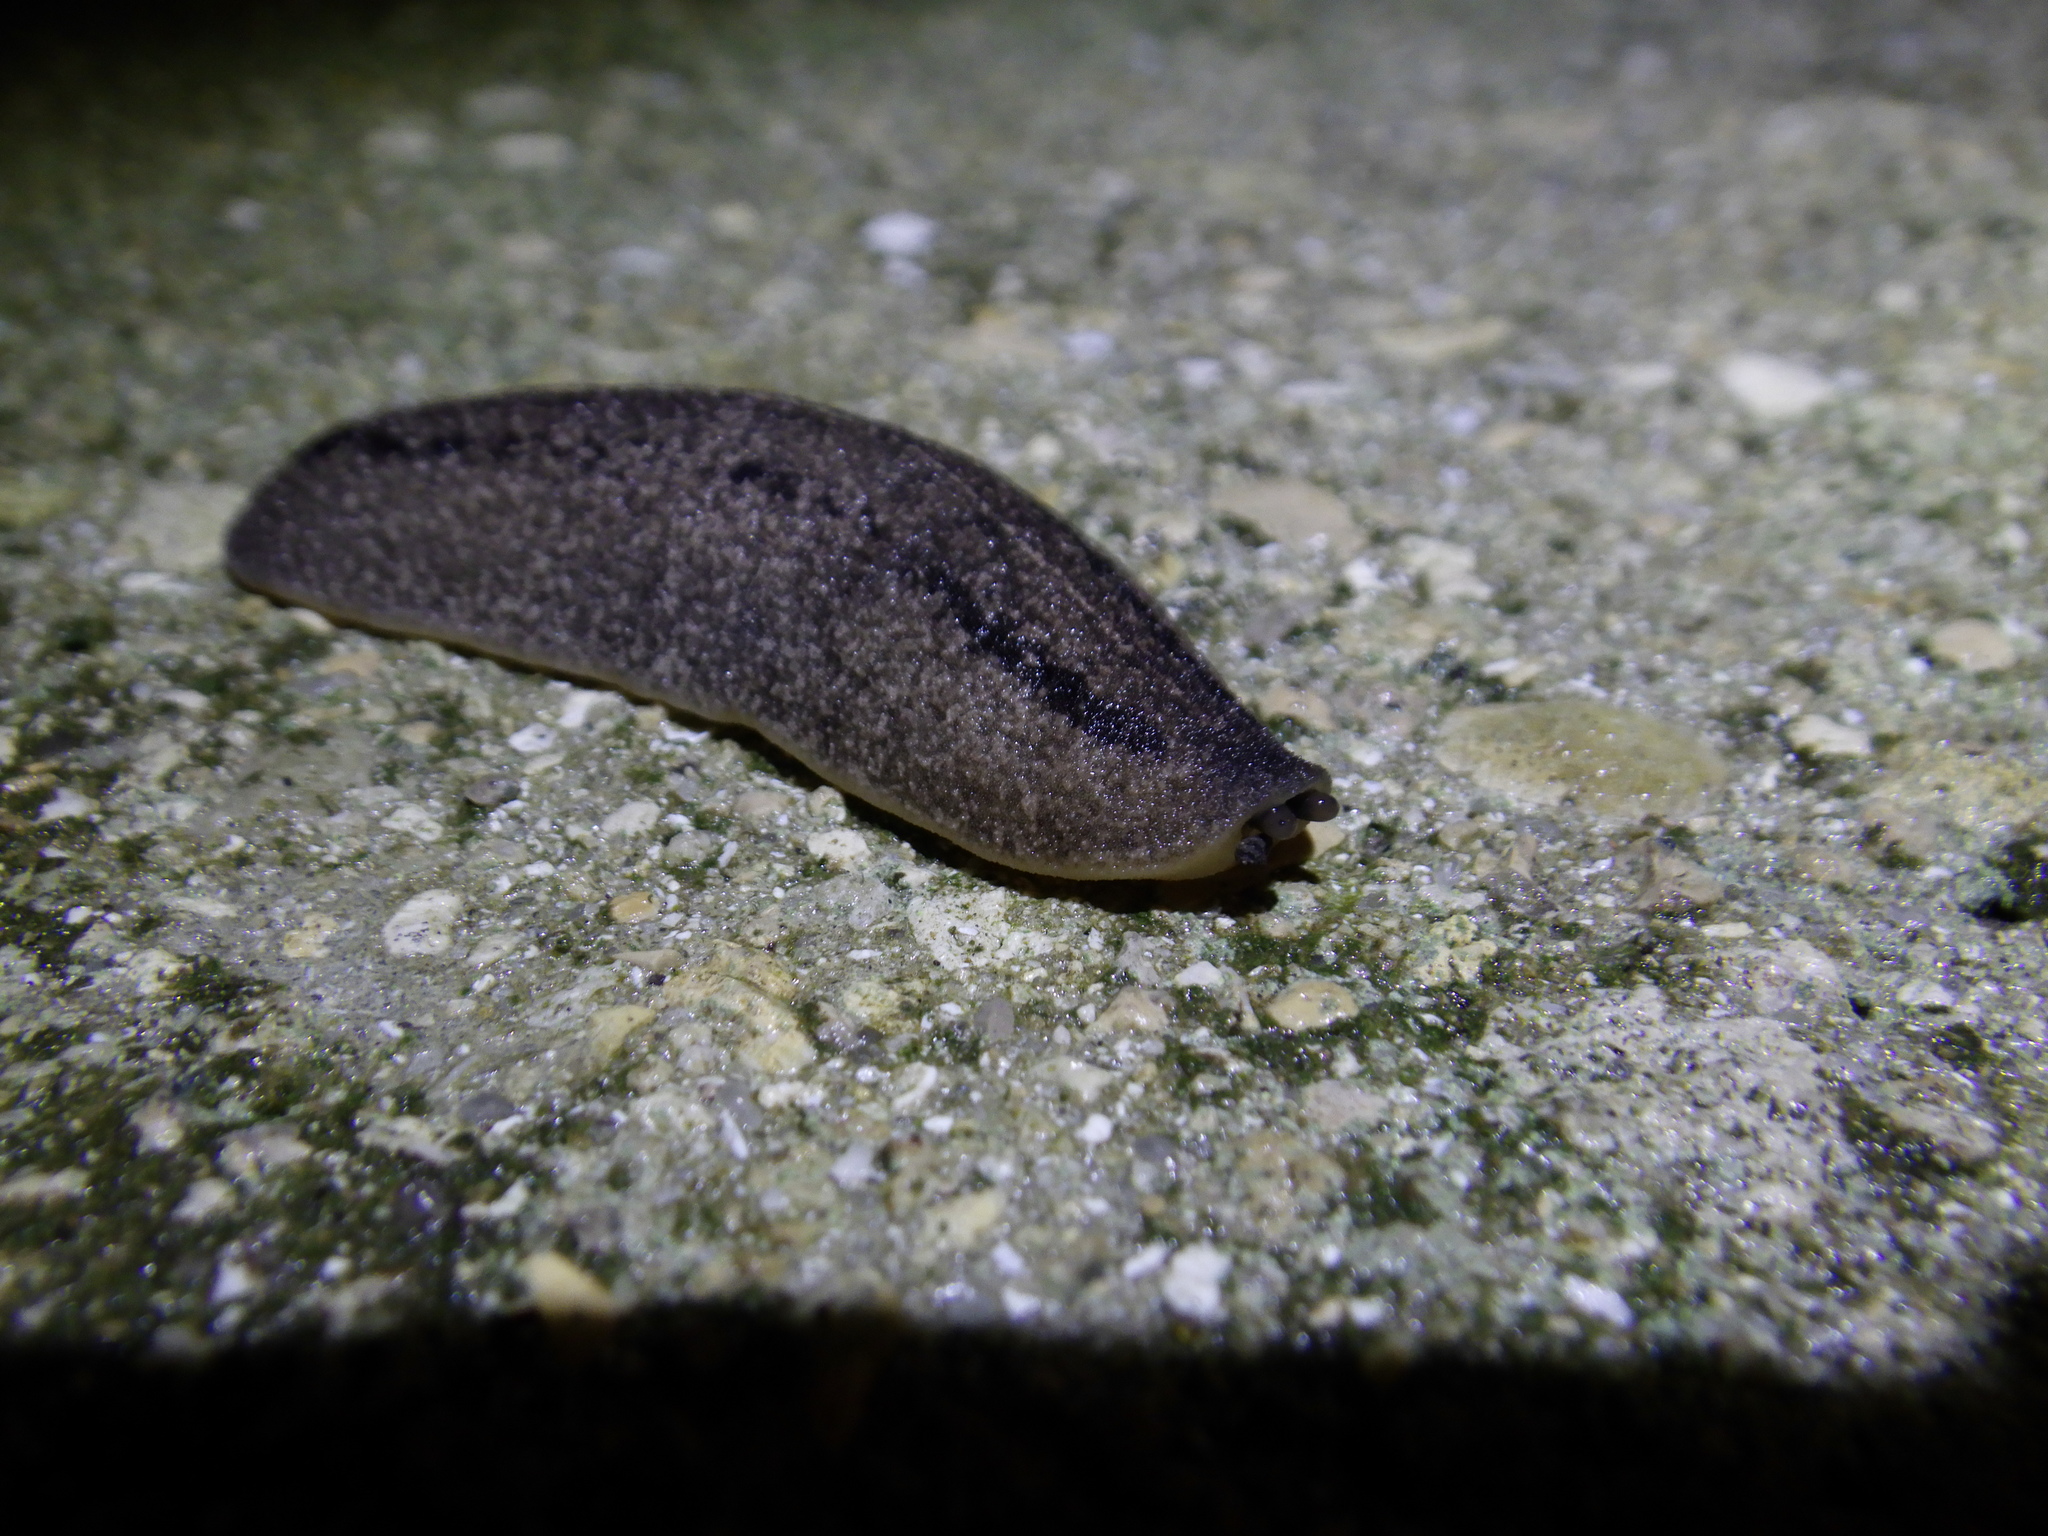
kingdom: Animalia
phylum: Mollusca
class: Gastropoda
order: Systellommatophora
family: Veronicellidae
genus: Leidyula
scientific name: Leidyula floridana
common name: Florida leatherleaf
